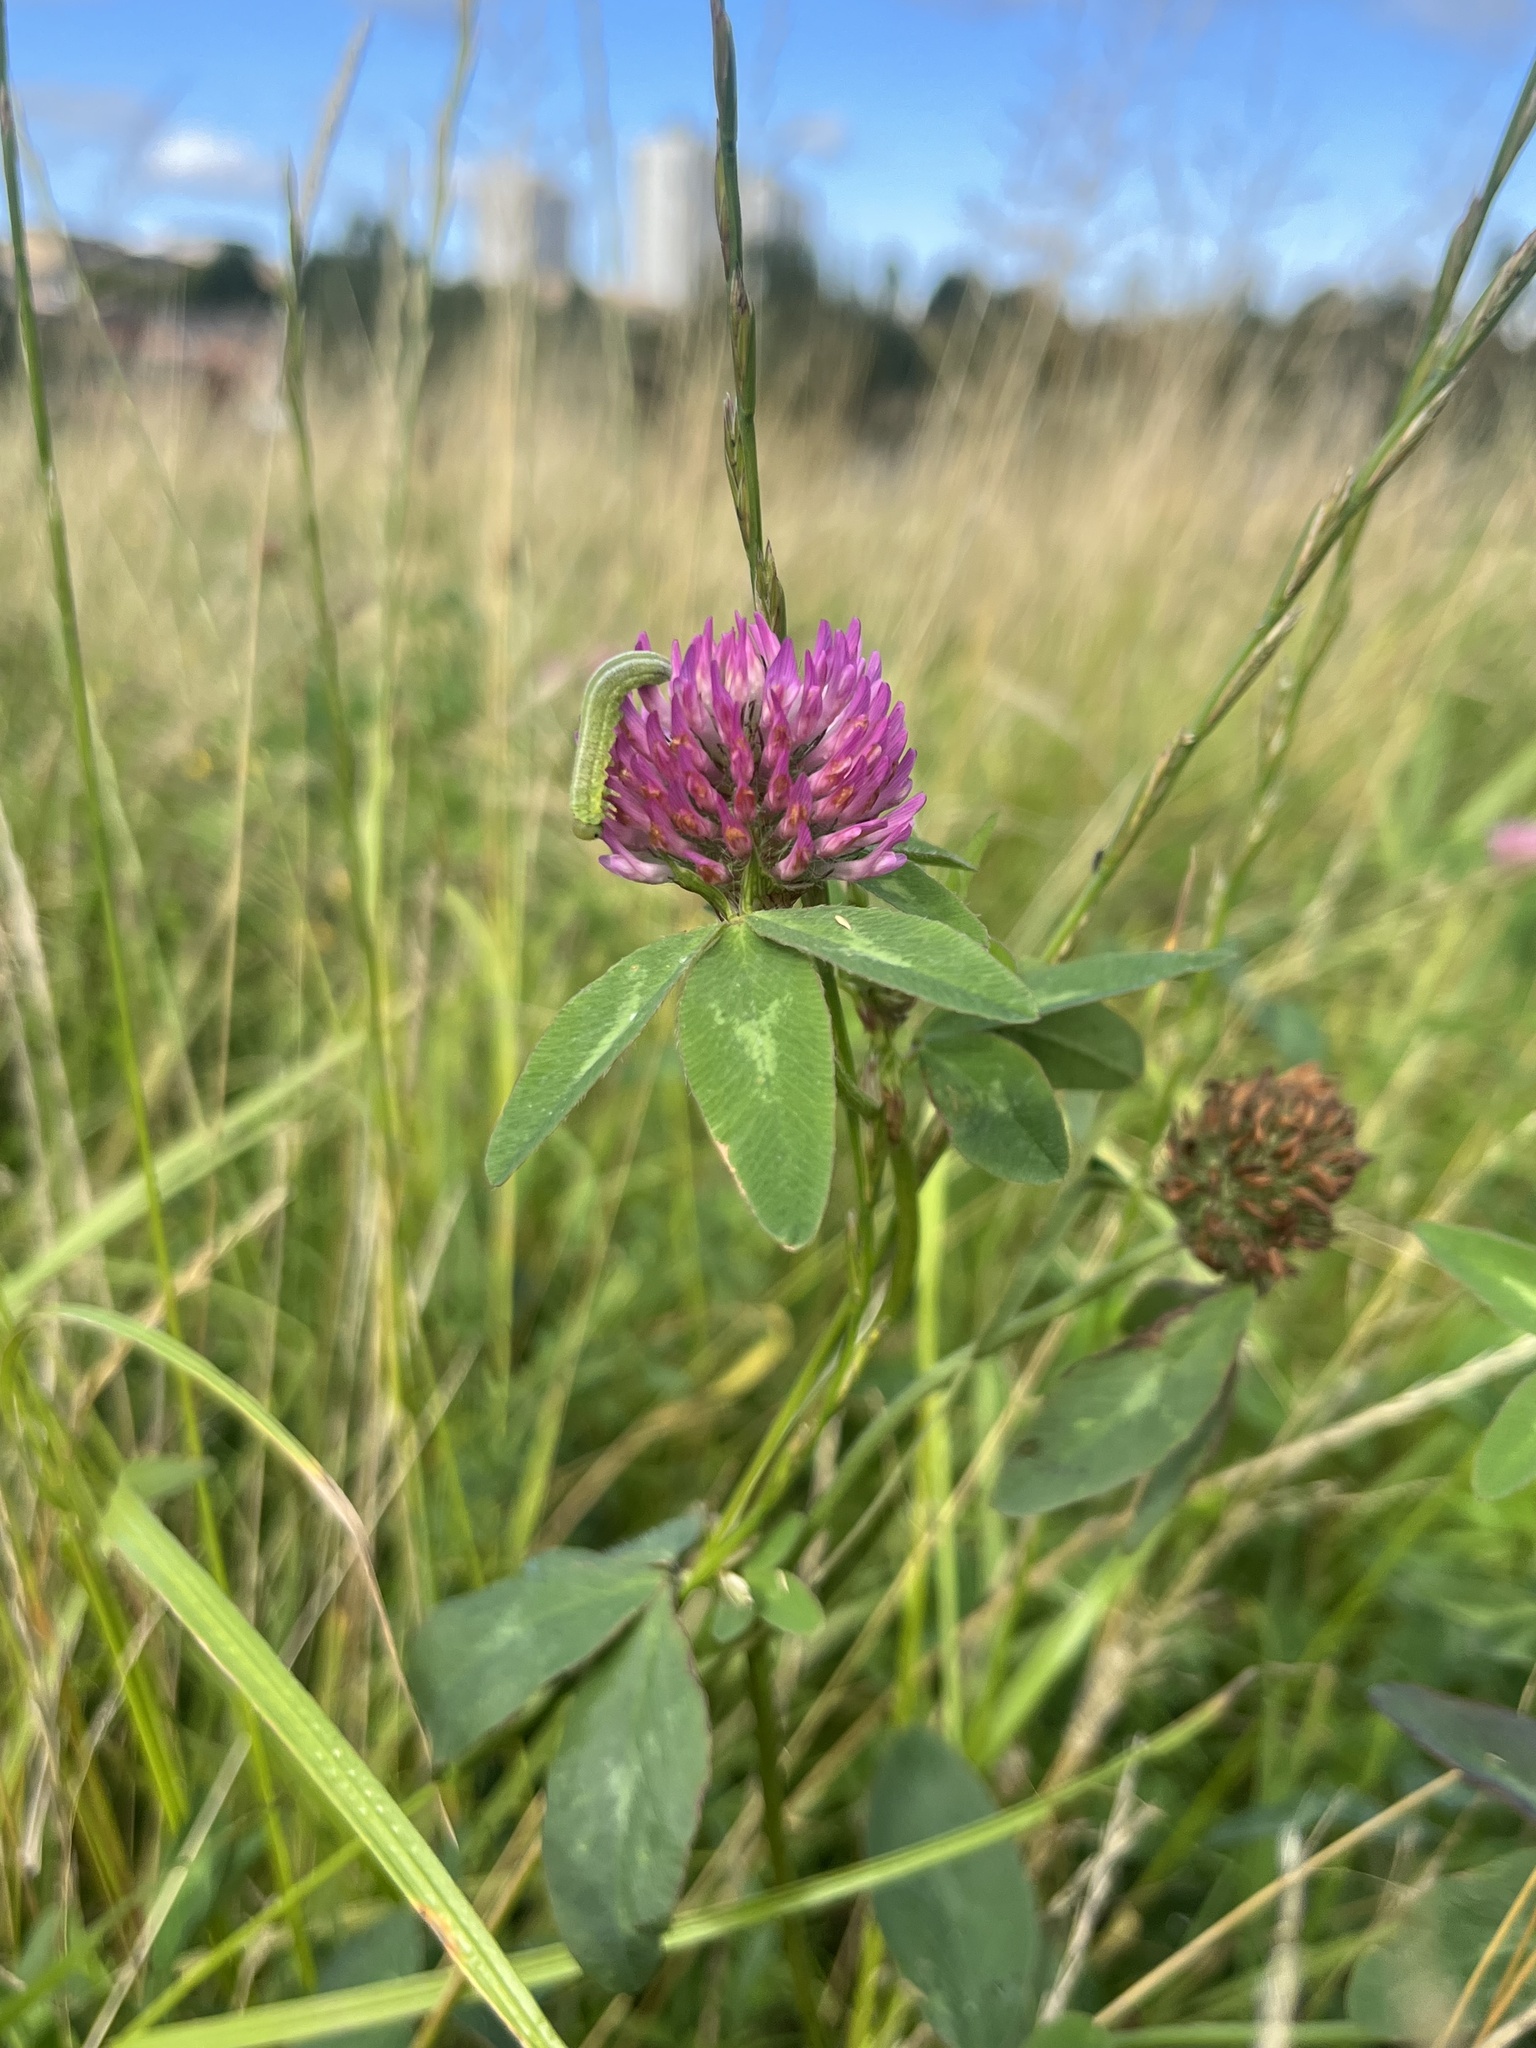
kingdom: Plantae
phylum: Tracheophyta
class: Magnoliopsida
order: Fabales
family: Fabaceae
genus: Trifolium
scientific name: Trifolium pratense
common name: Red clover
